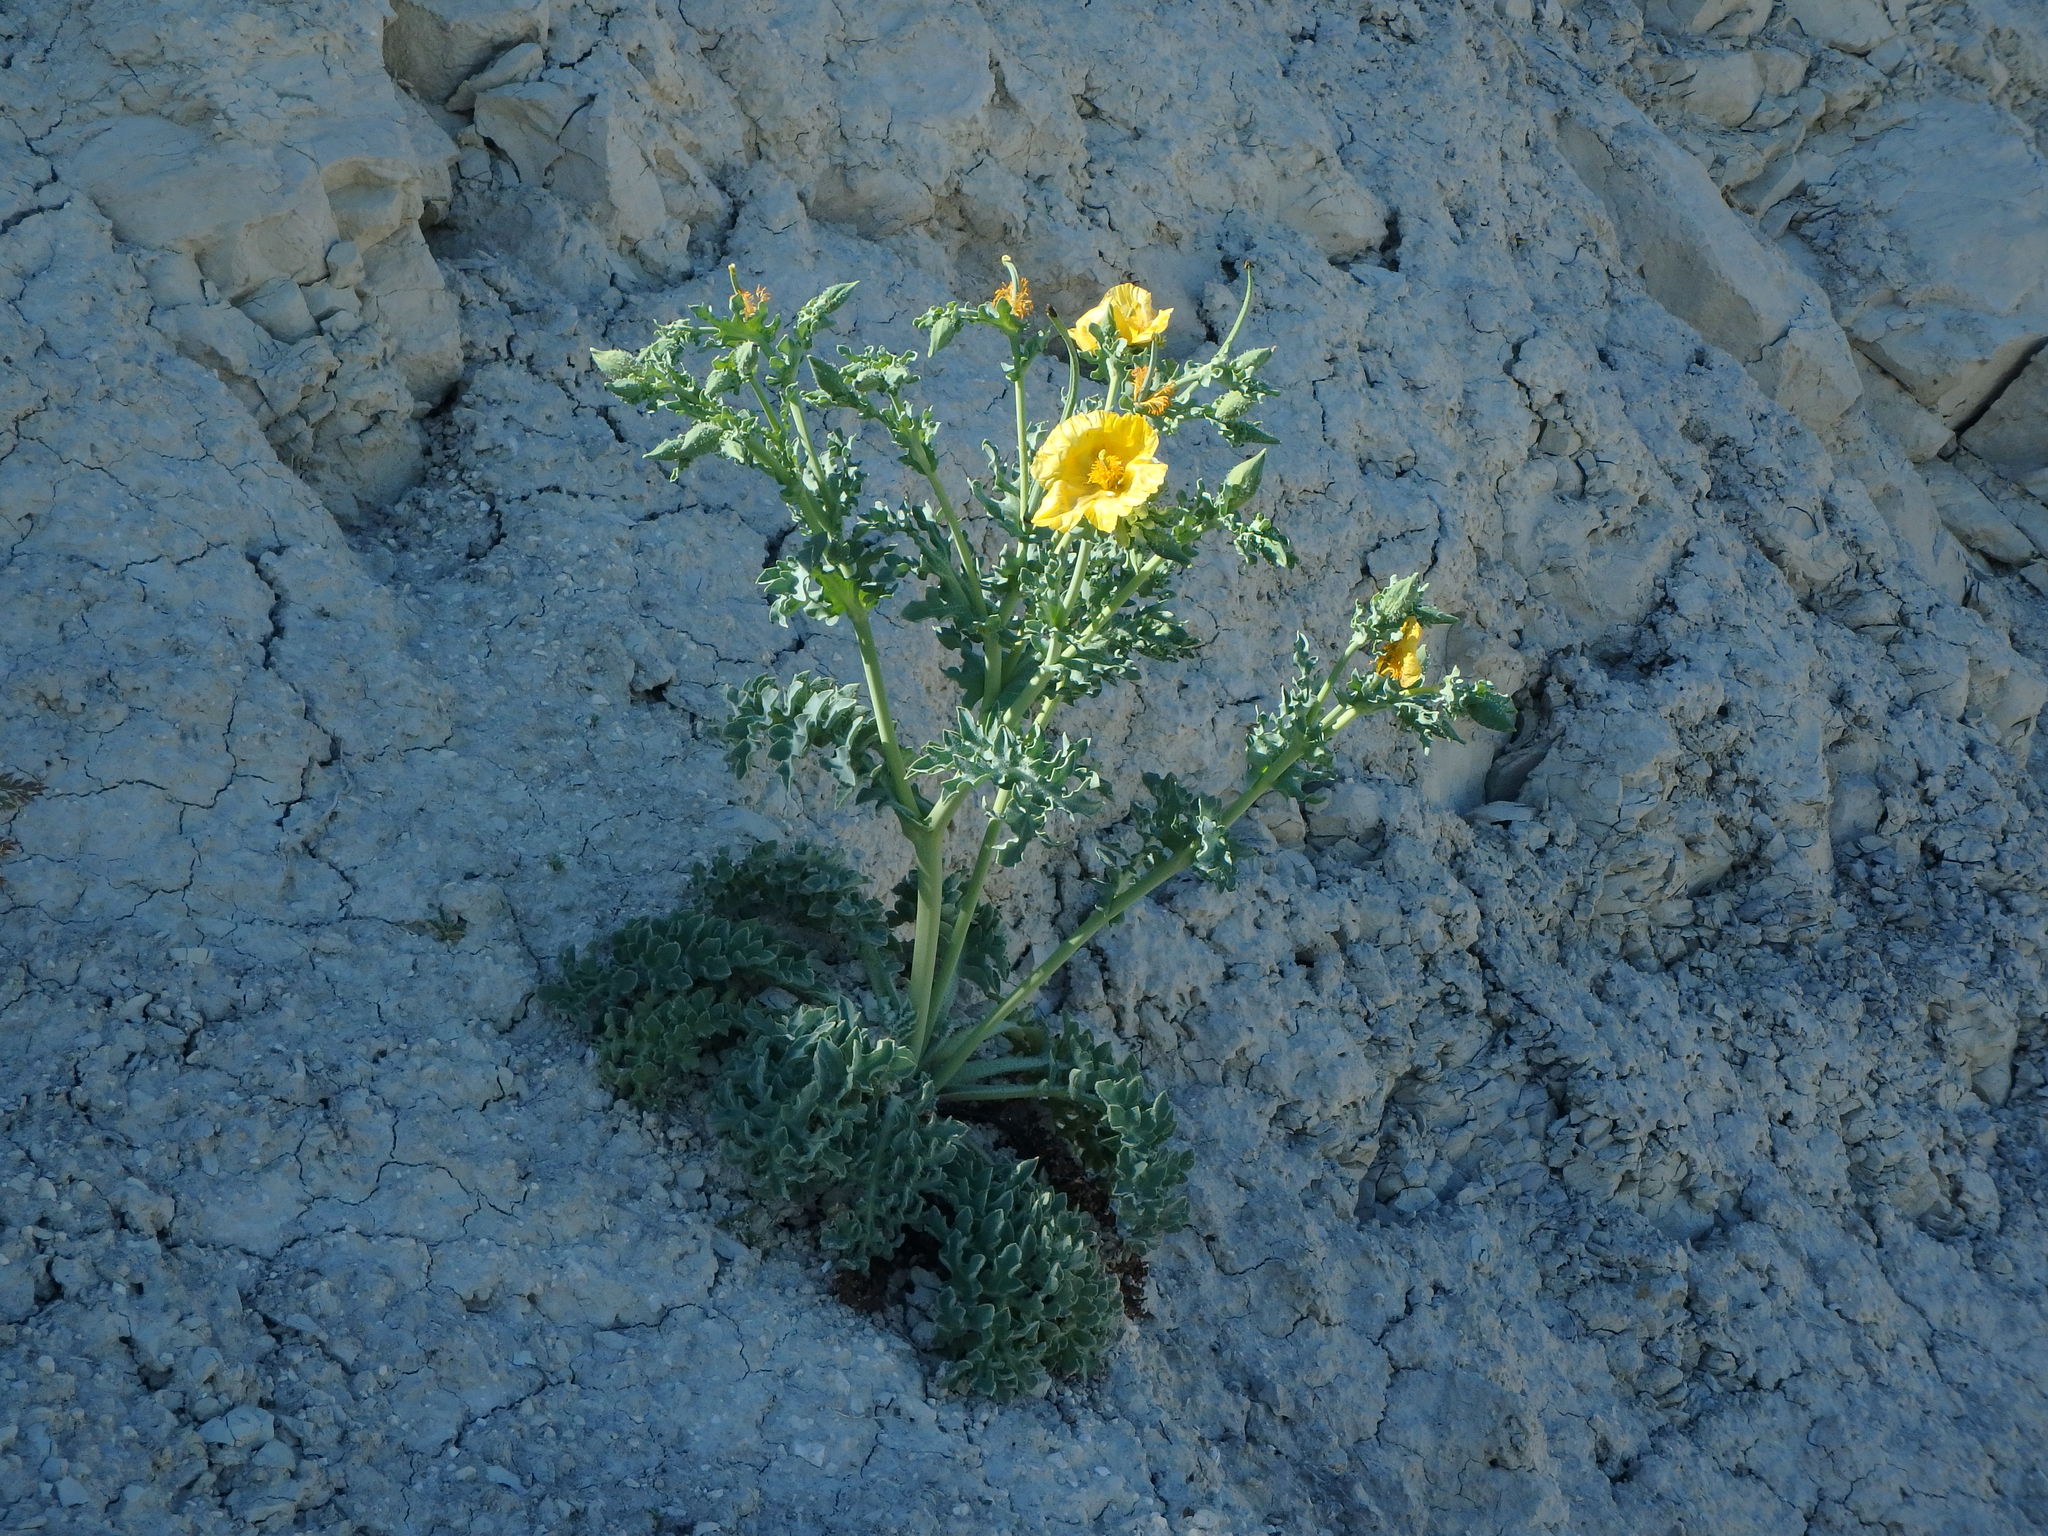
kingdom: Plantae
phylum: Tracheophyta
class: Magnoliopsida
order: Ranunculales
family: Papaveraceae
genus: Glaucium
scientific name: Glaucium flavum
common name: Yellow horned-poppy
